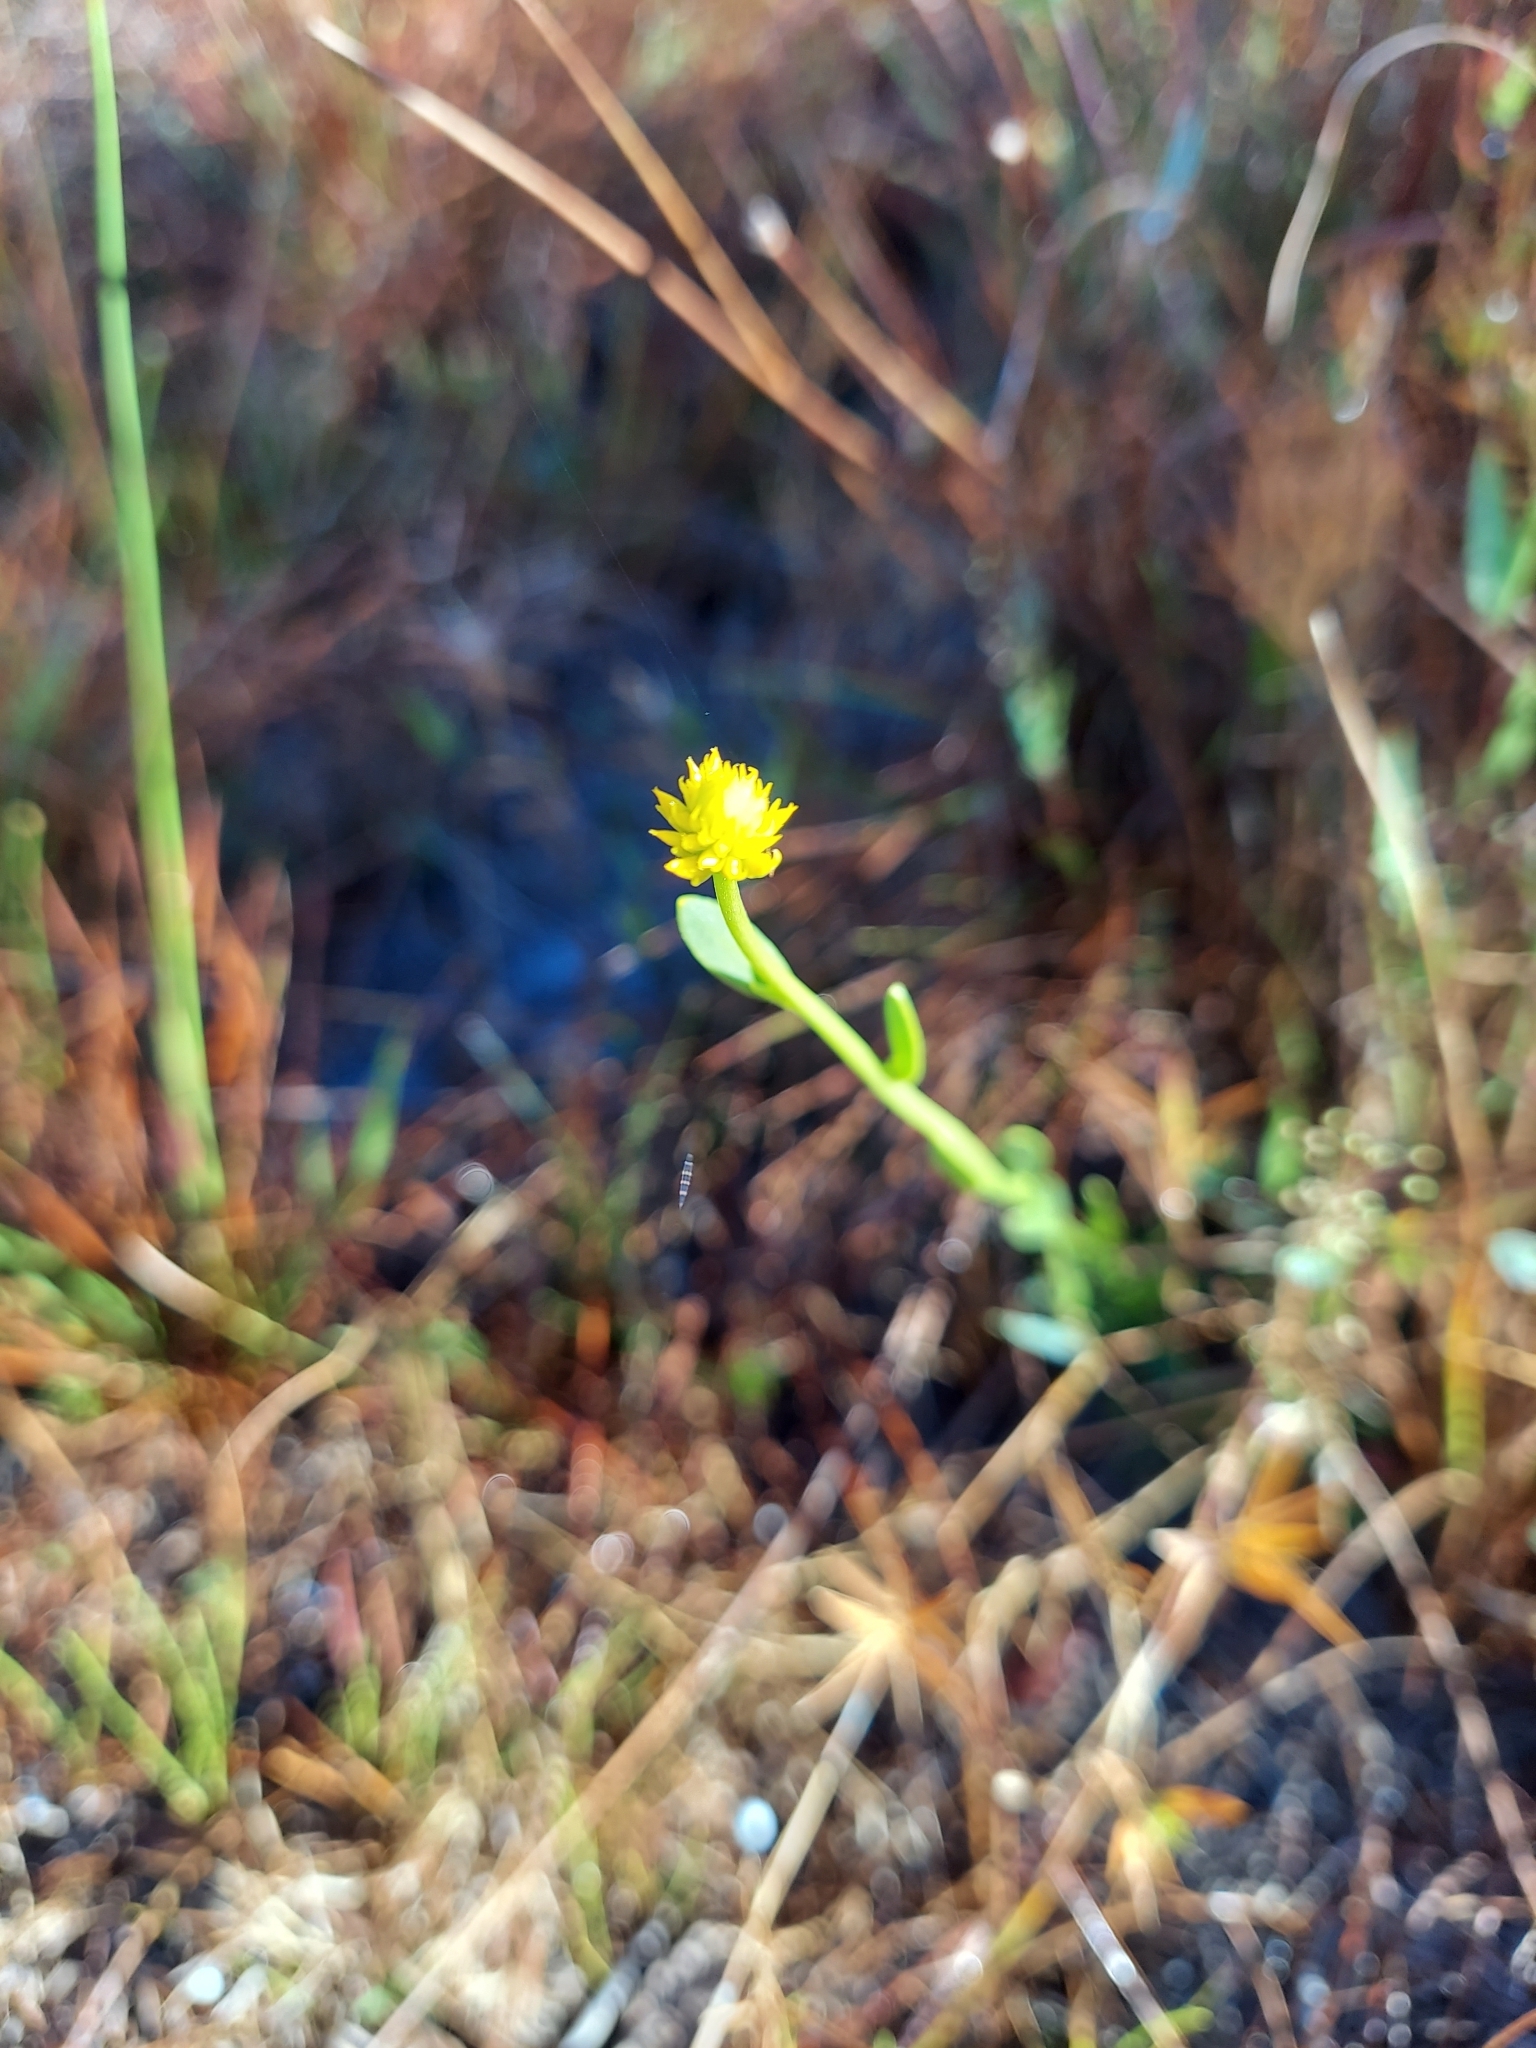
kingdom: Plantae
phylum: Tracheophyta
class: Magnoliopsida
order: Fabales
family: Polygalaceae
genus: Polygala
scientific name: Polygala rugelii
